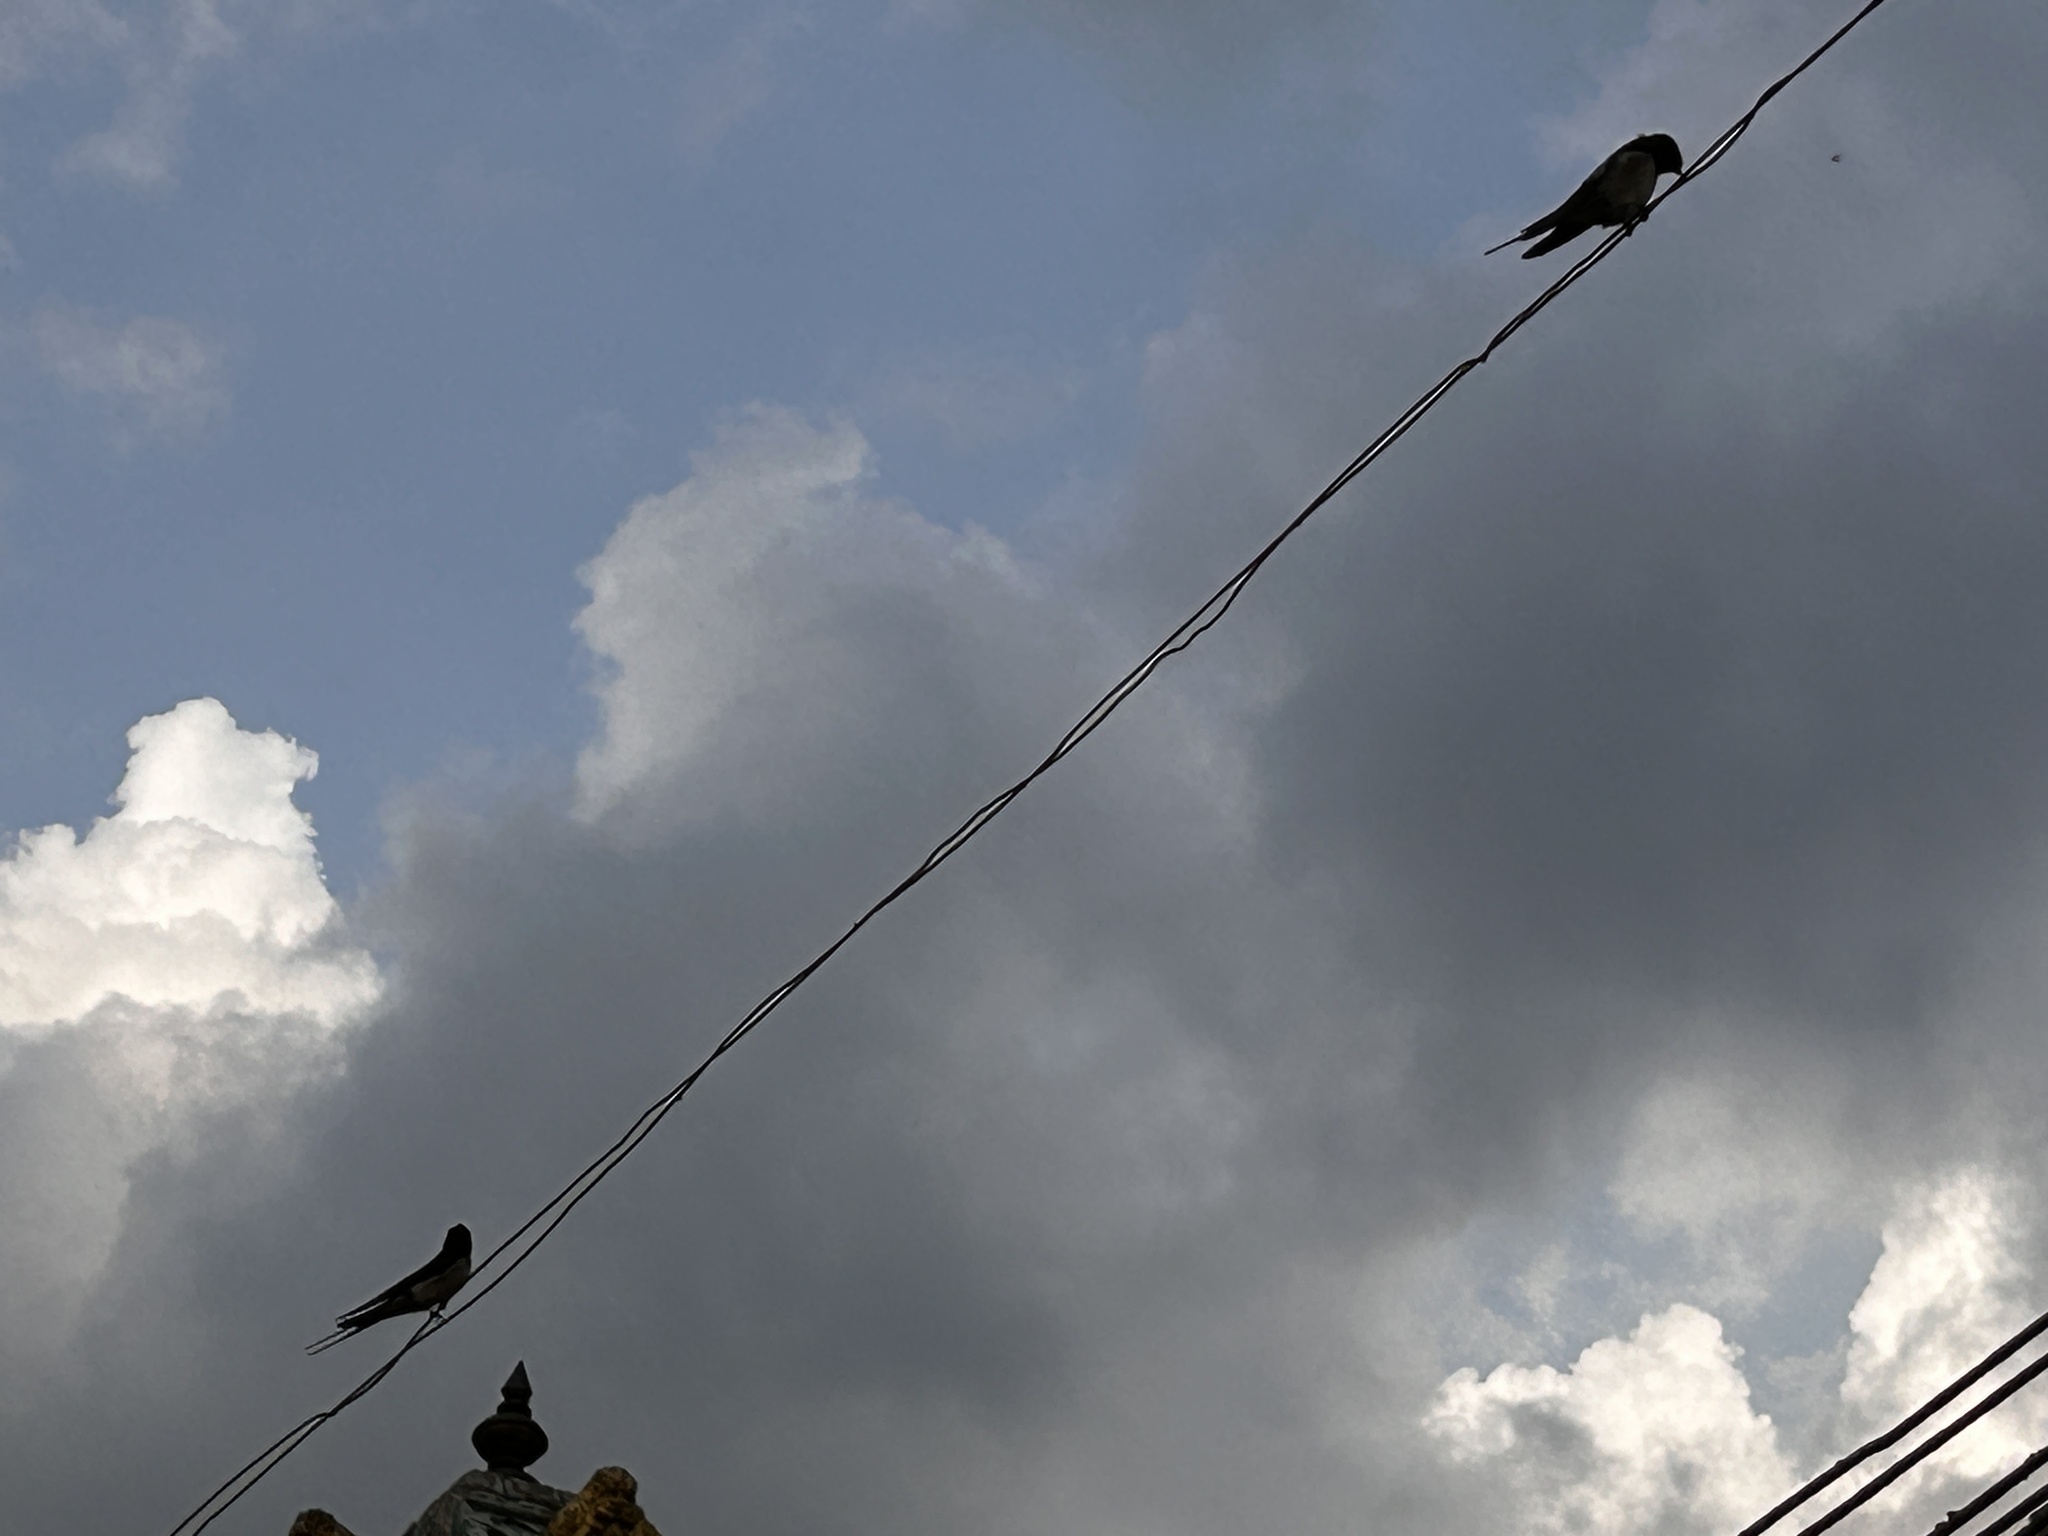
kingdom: Animalia
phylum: Chordata
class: Aves
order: Passeriformes
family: Hirundinidae
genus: Hirundo
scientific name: Hirundo rustica
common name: Barn swallow
